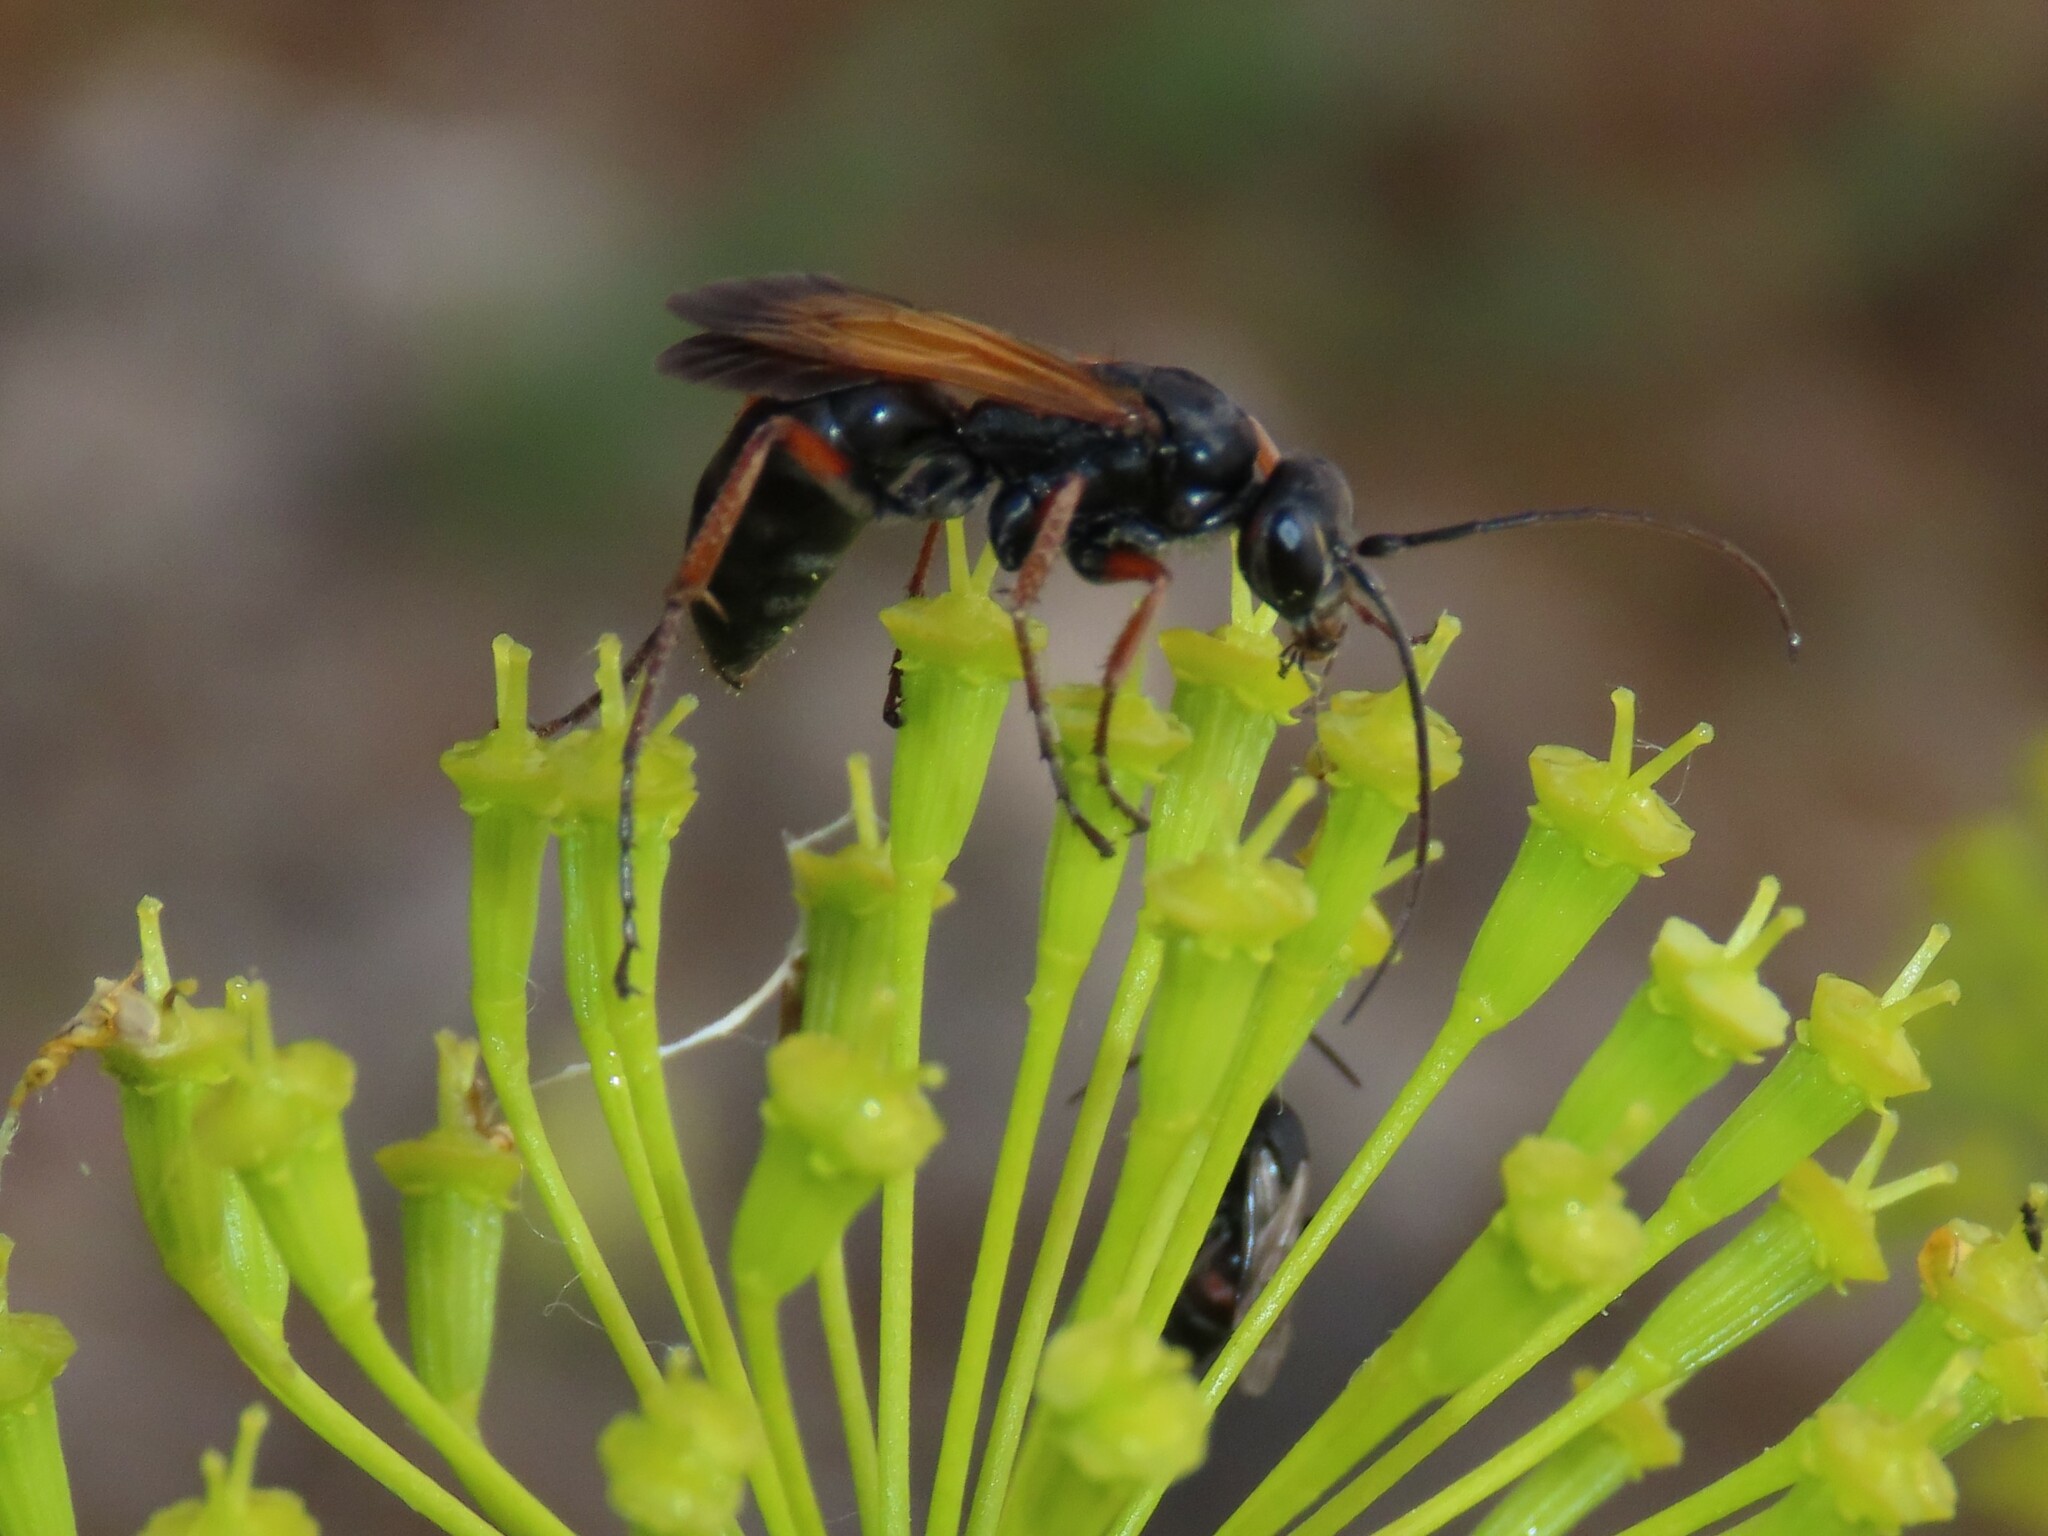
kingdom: Animalia
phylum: Arthropoda
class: Insecta
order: Hymenoptera
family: Pompilidae
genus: Cryptocheilus
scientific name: Cryptocheilus infumatus
